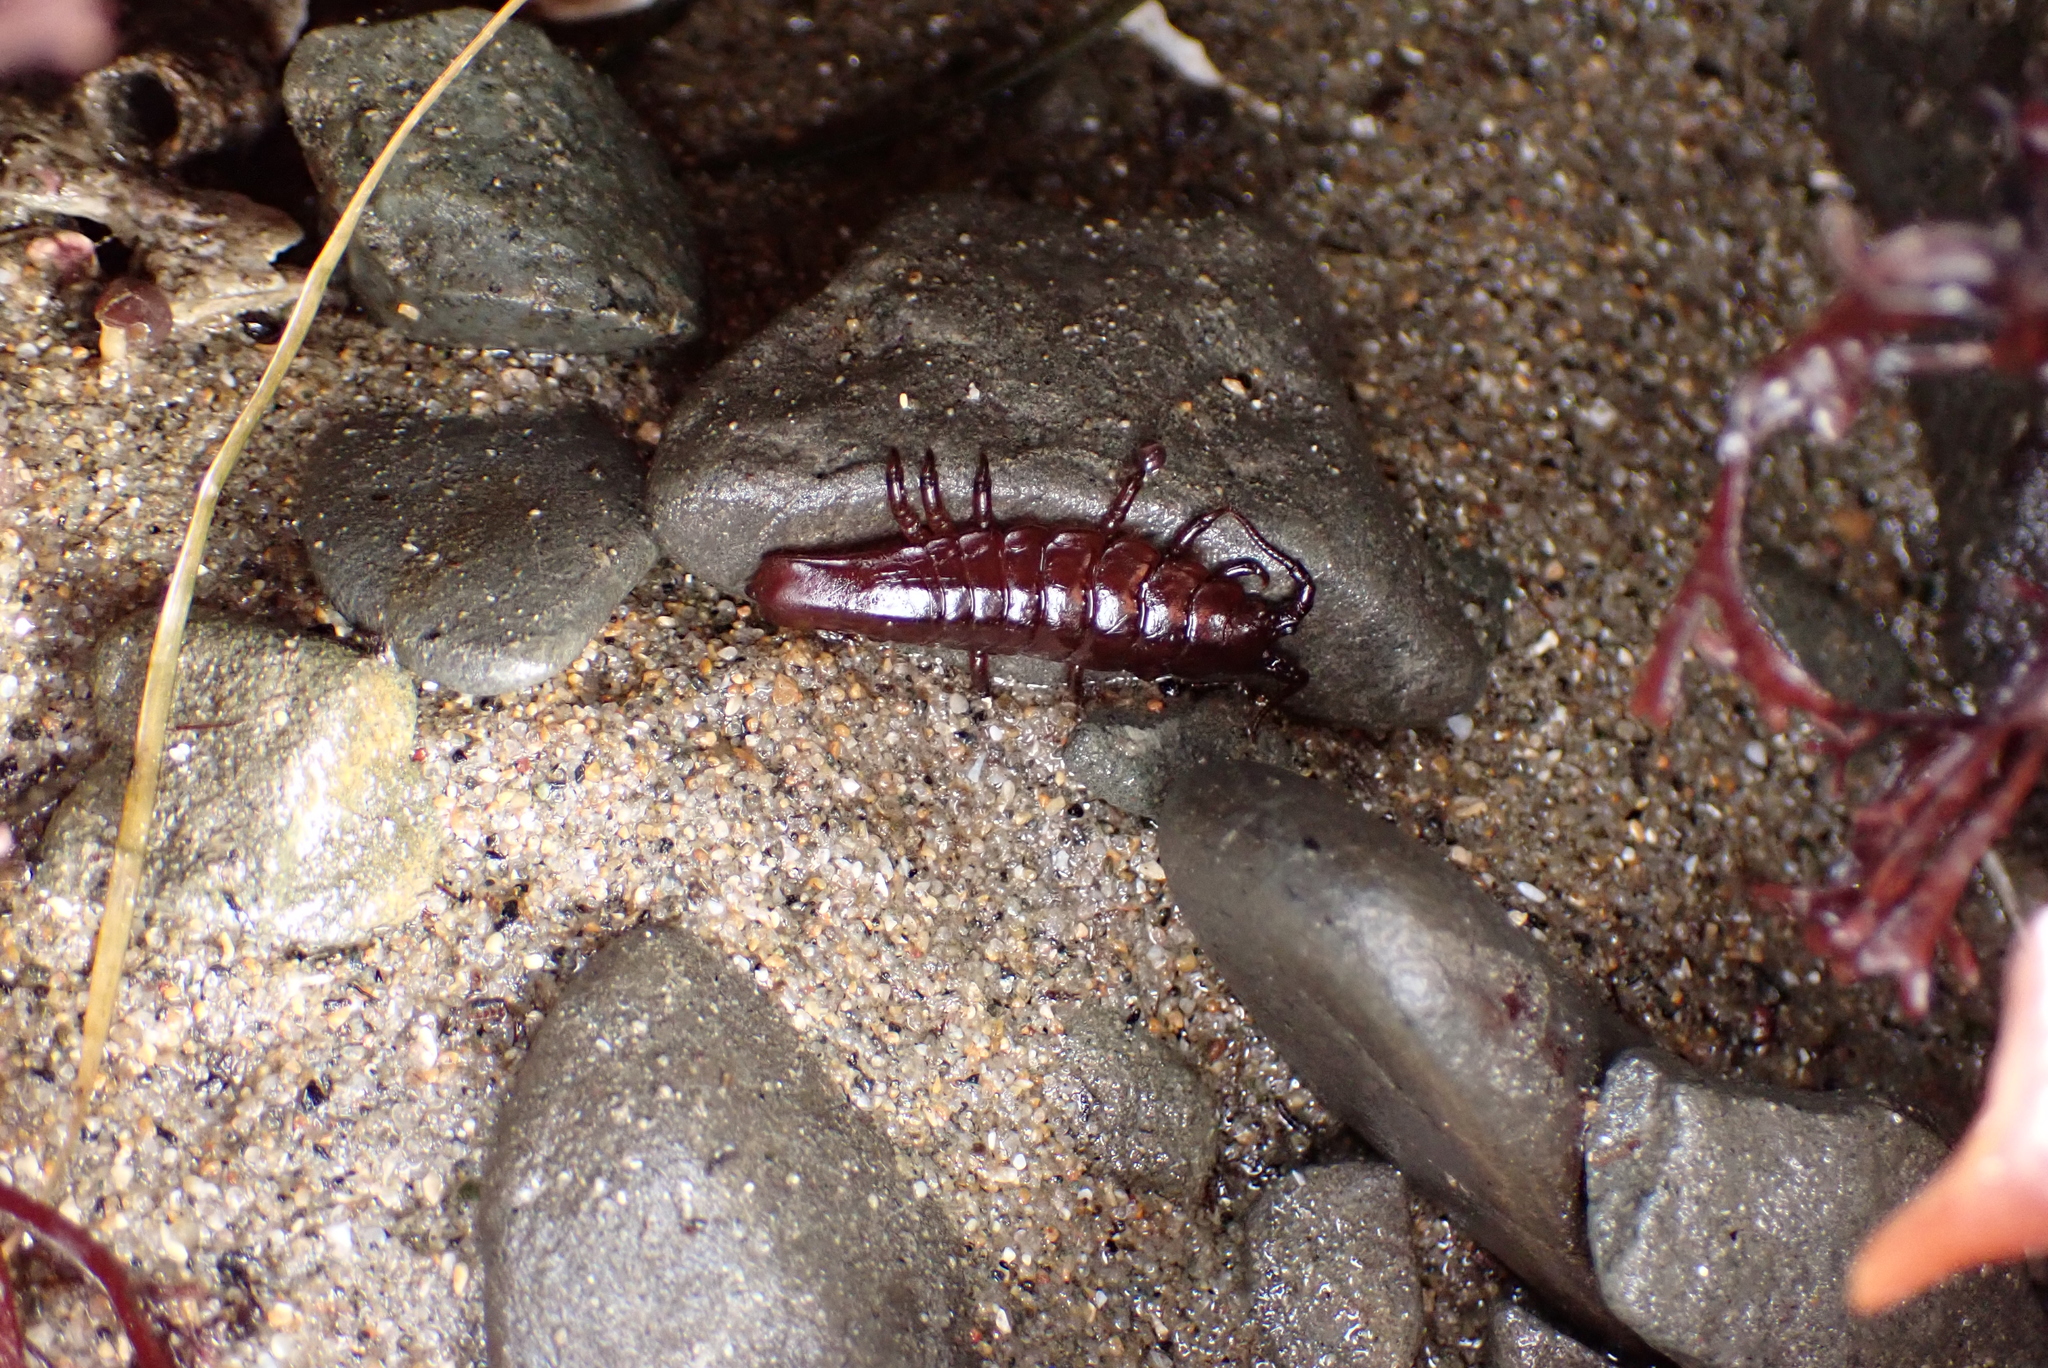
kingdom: Animalia
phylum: Arthropoda
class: Malacostraca
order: Isopoda
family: Idoteidae
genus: Pentidotea
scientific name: Pentidotea stenops
